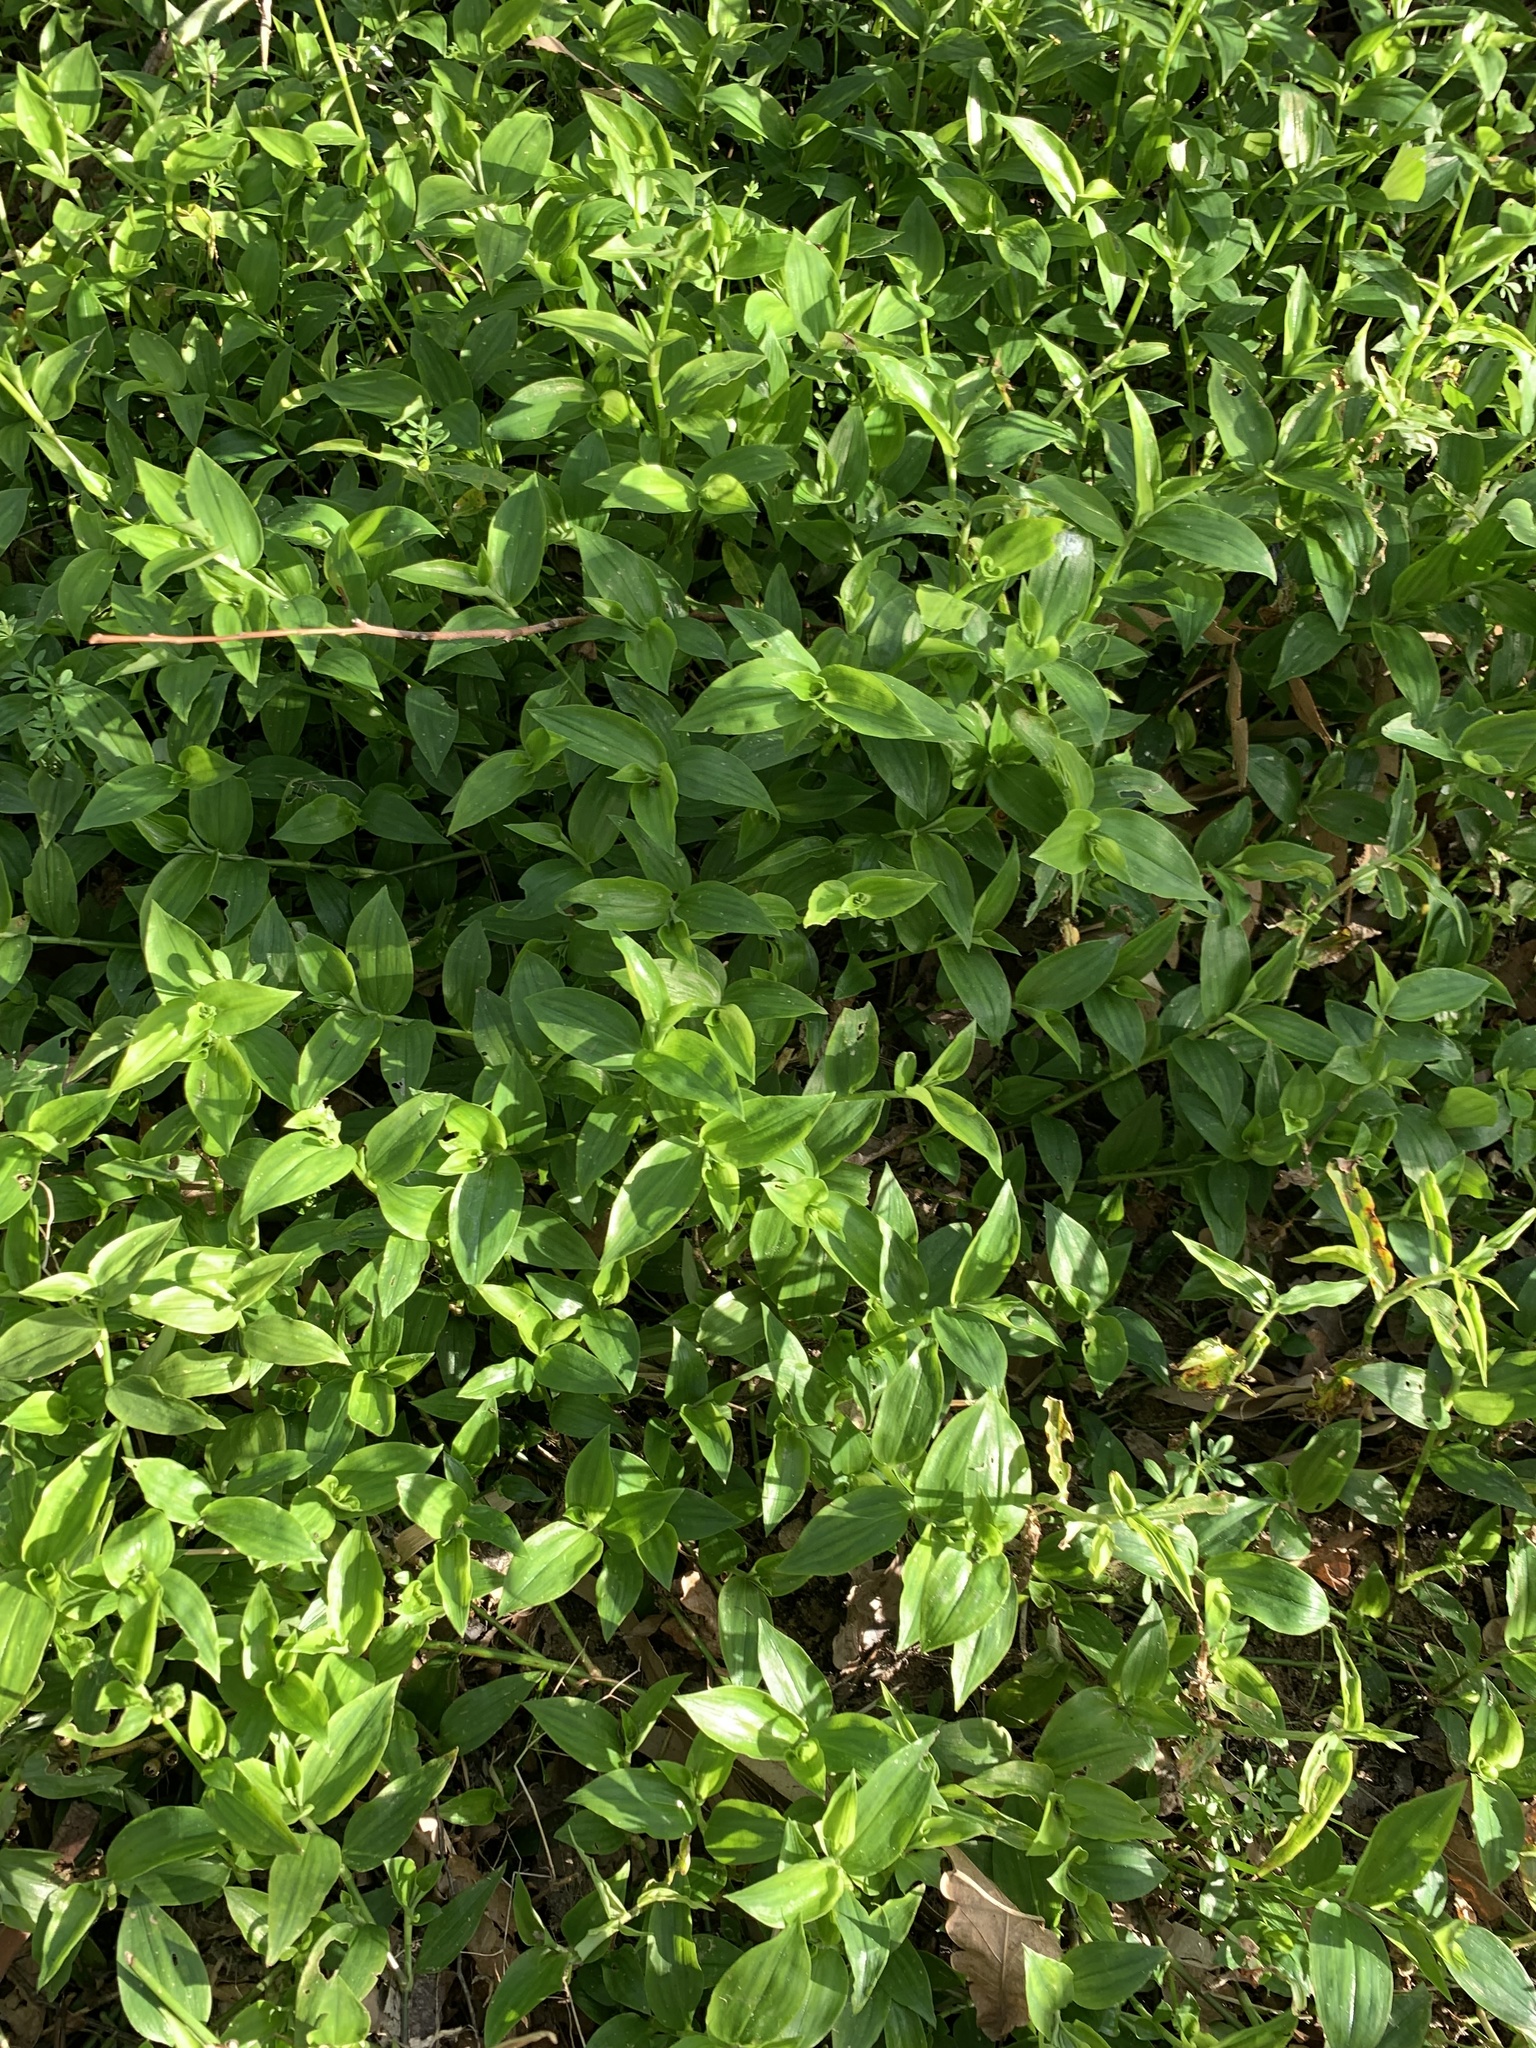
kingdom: Plantae
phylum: Tracheophyta
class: Liliopsida
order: Commelinales
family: Commelinaceae
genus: Tradescantia
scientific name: Tradescantia fluminensis
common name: Wandering-jew
